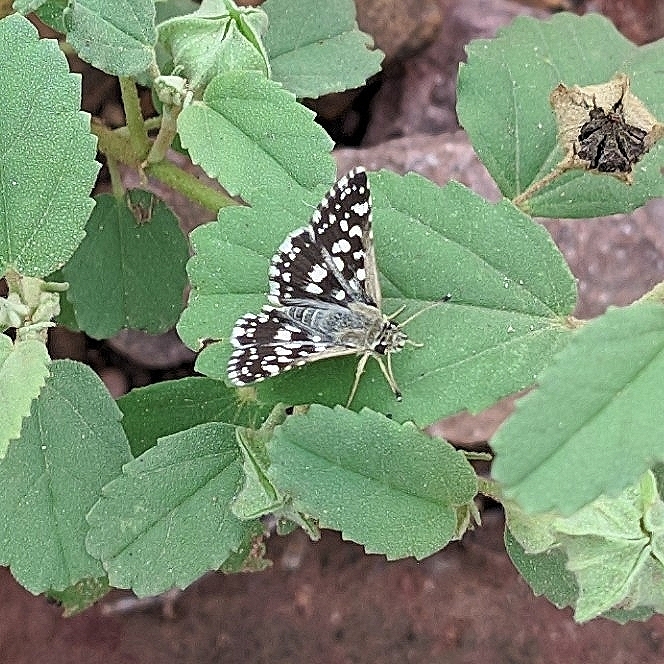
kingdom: Animalia
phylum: Arthropoda
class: Insecta
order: Lepidoptera
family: Hesperiidae
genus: Spialia
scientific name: Spialia galba
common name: Indian skipper
